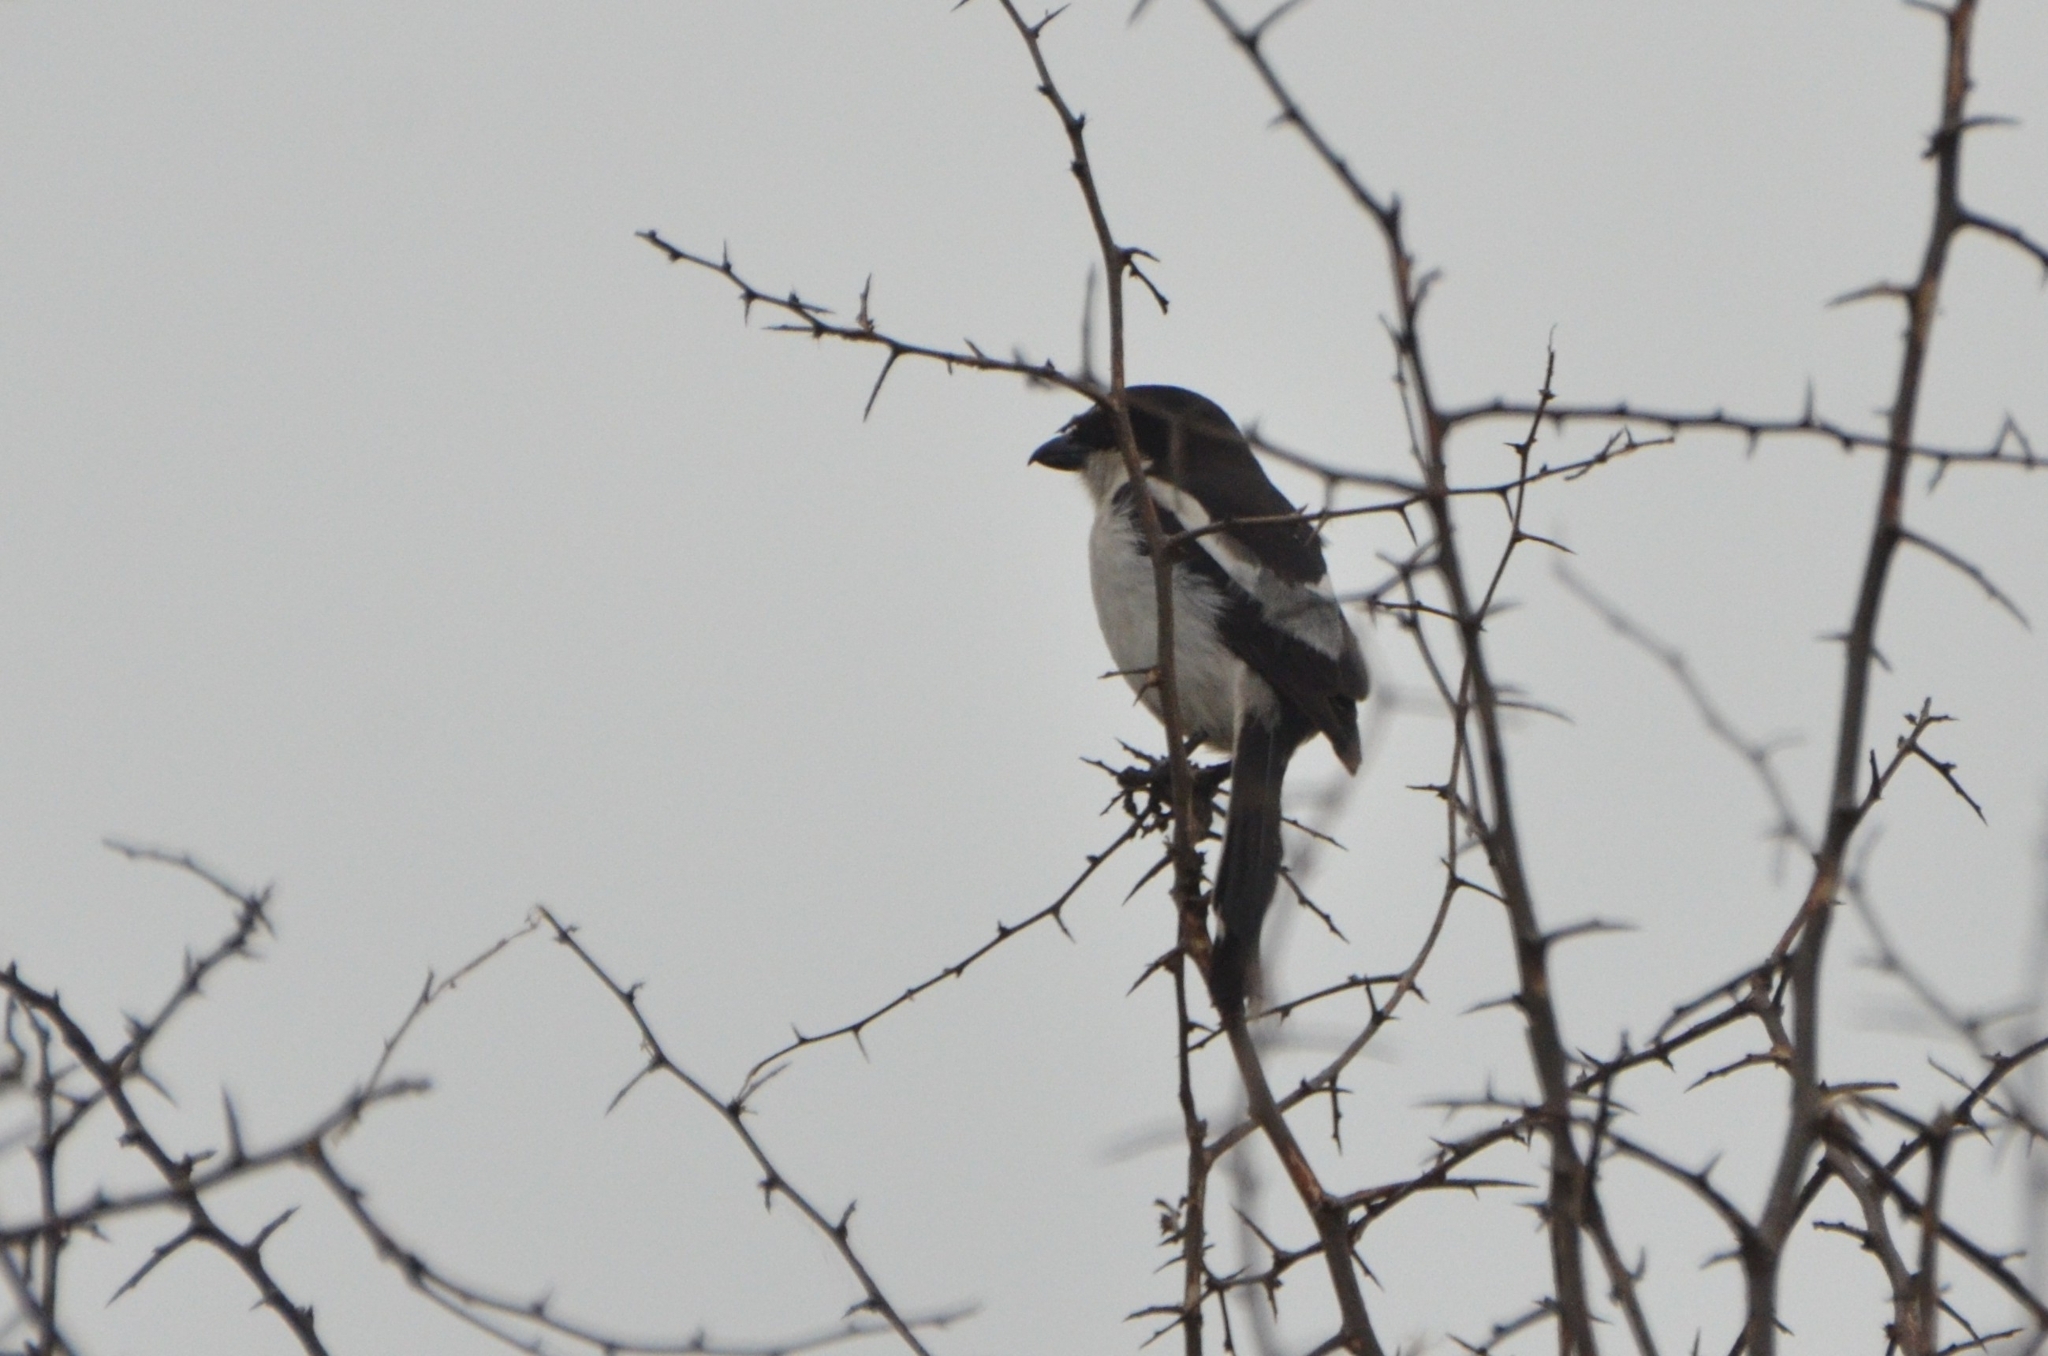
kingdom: Animalia
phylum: Chordata
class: Aves
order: Passeriformes
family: Laniidae
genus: Lanius
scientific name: Lanius collaris
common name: Southern fiscal
